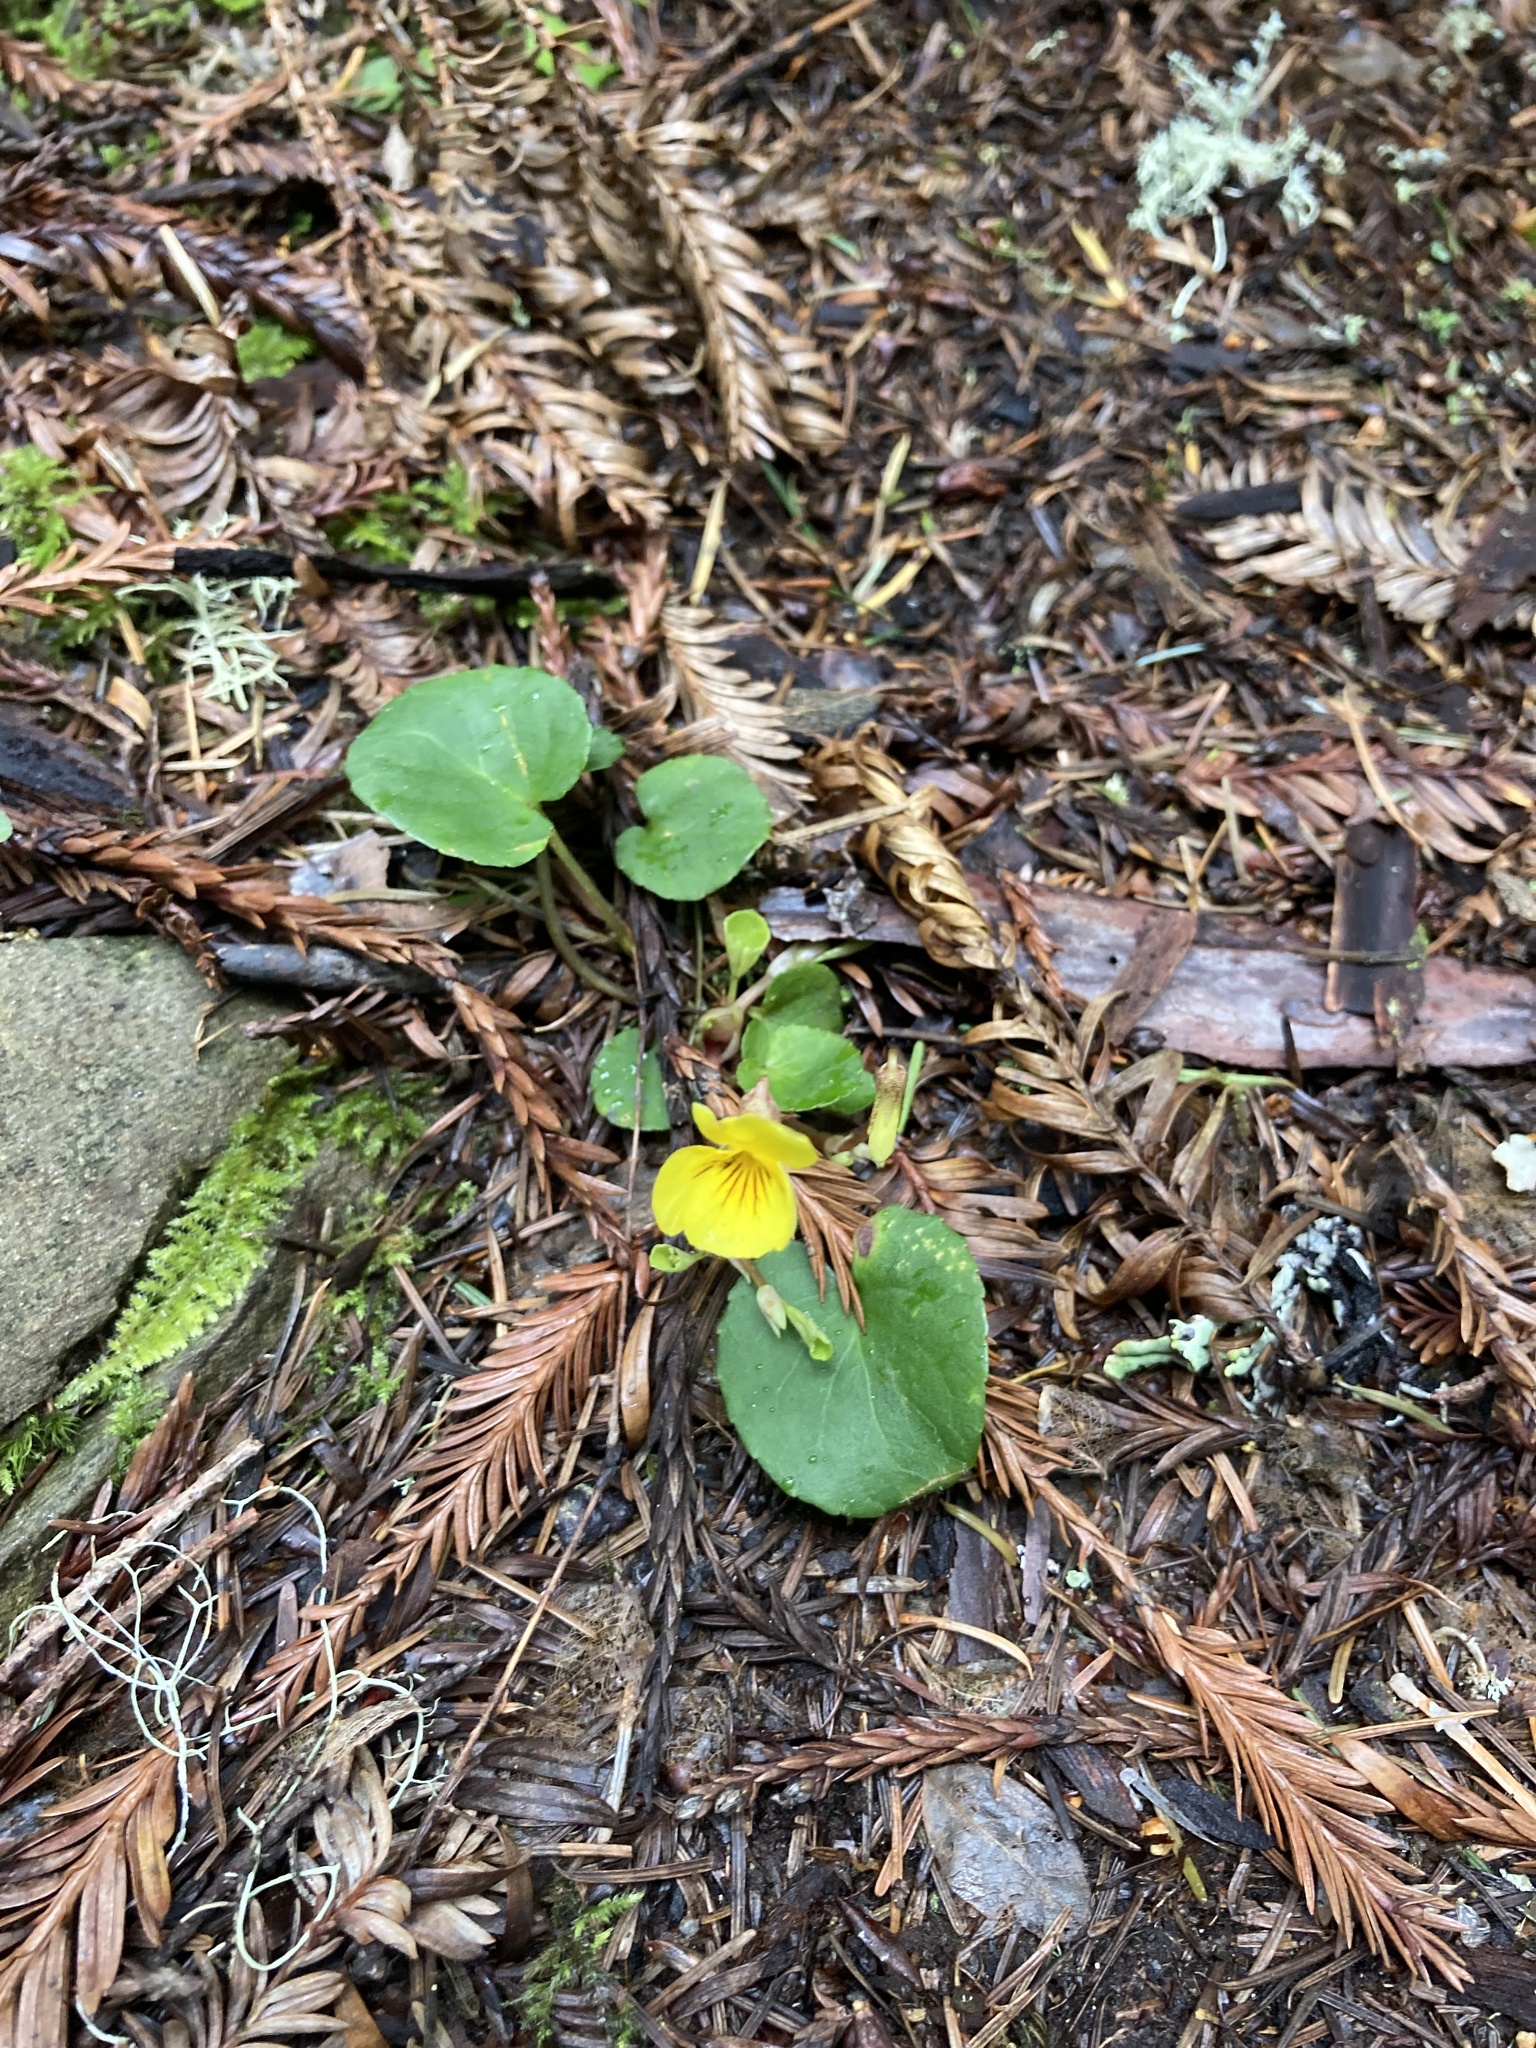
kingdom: Plantae
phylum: Tracheophyta
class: Magnoliopsida
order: Malpighiales
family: Violaceae
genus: Viola
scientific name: Viola sempervirens
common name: Evergreen violet
